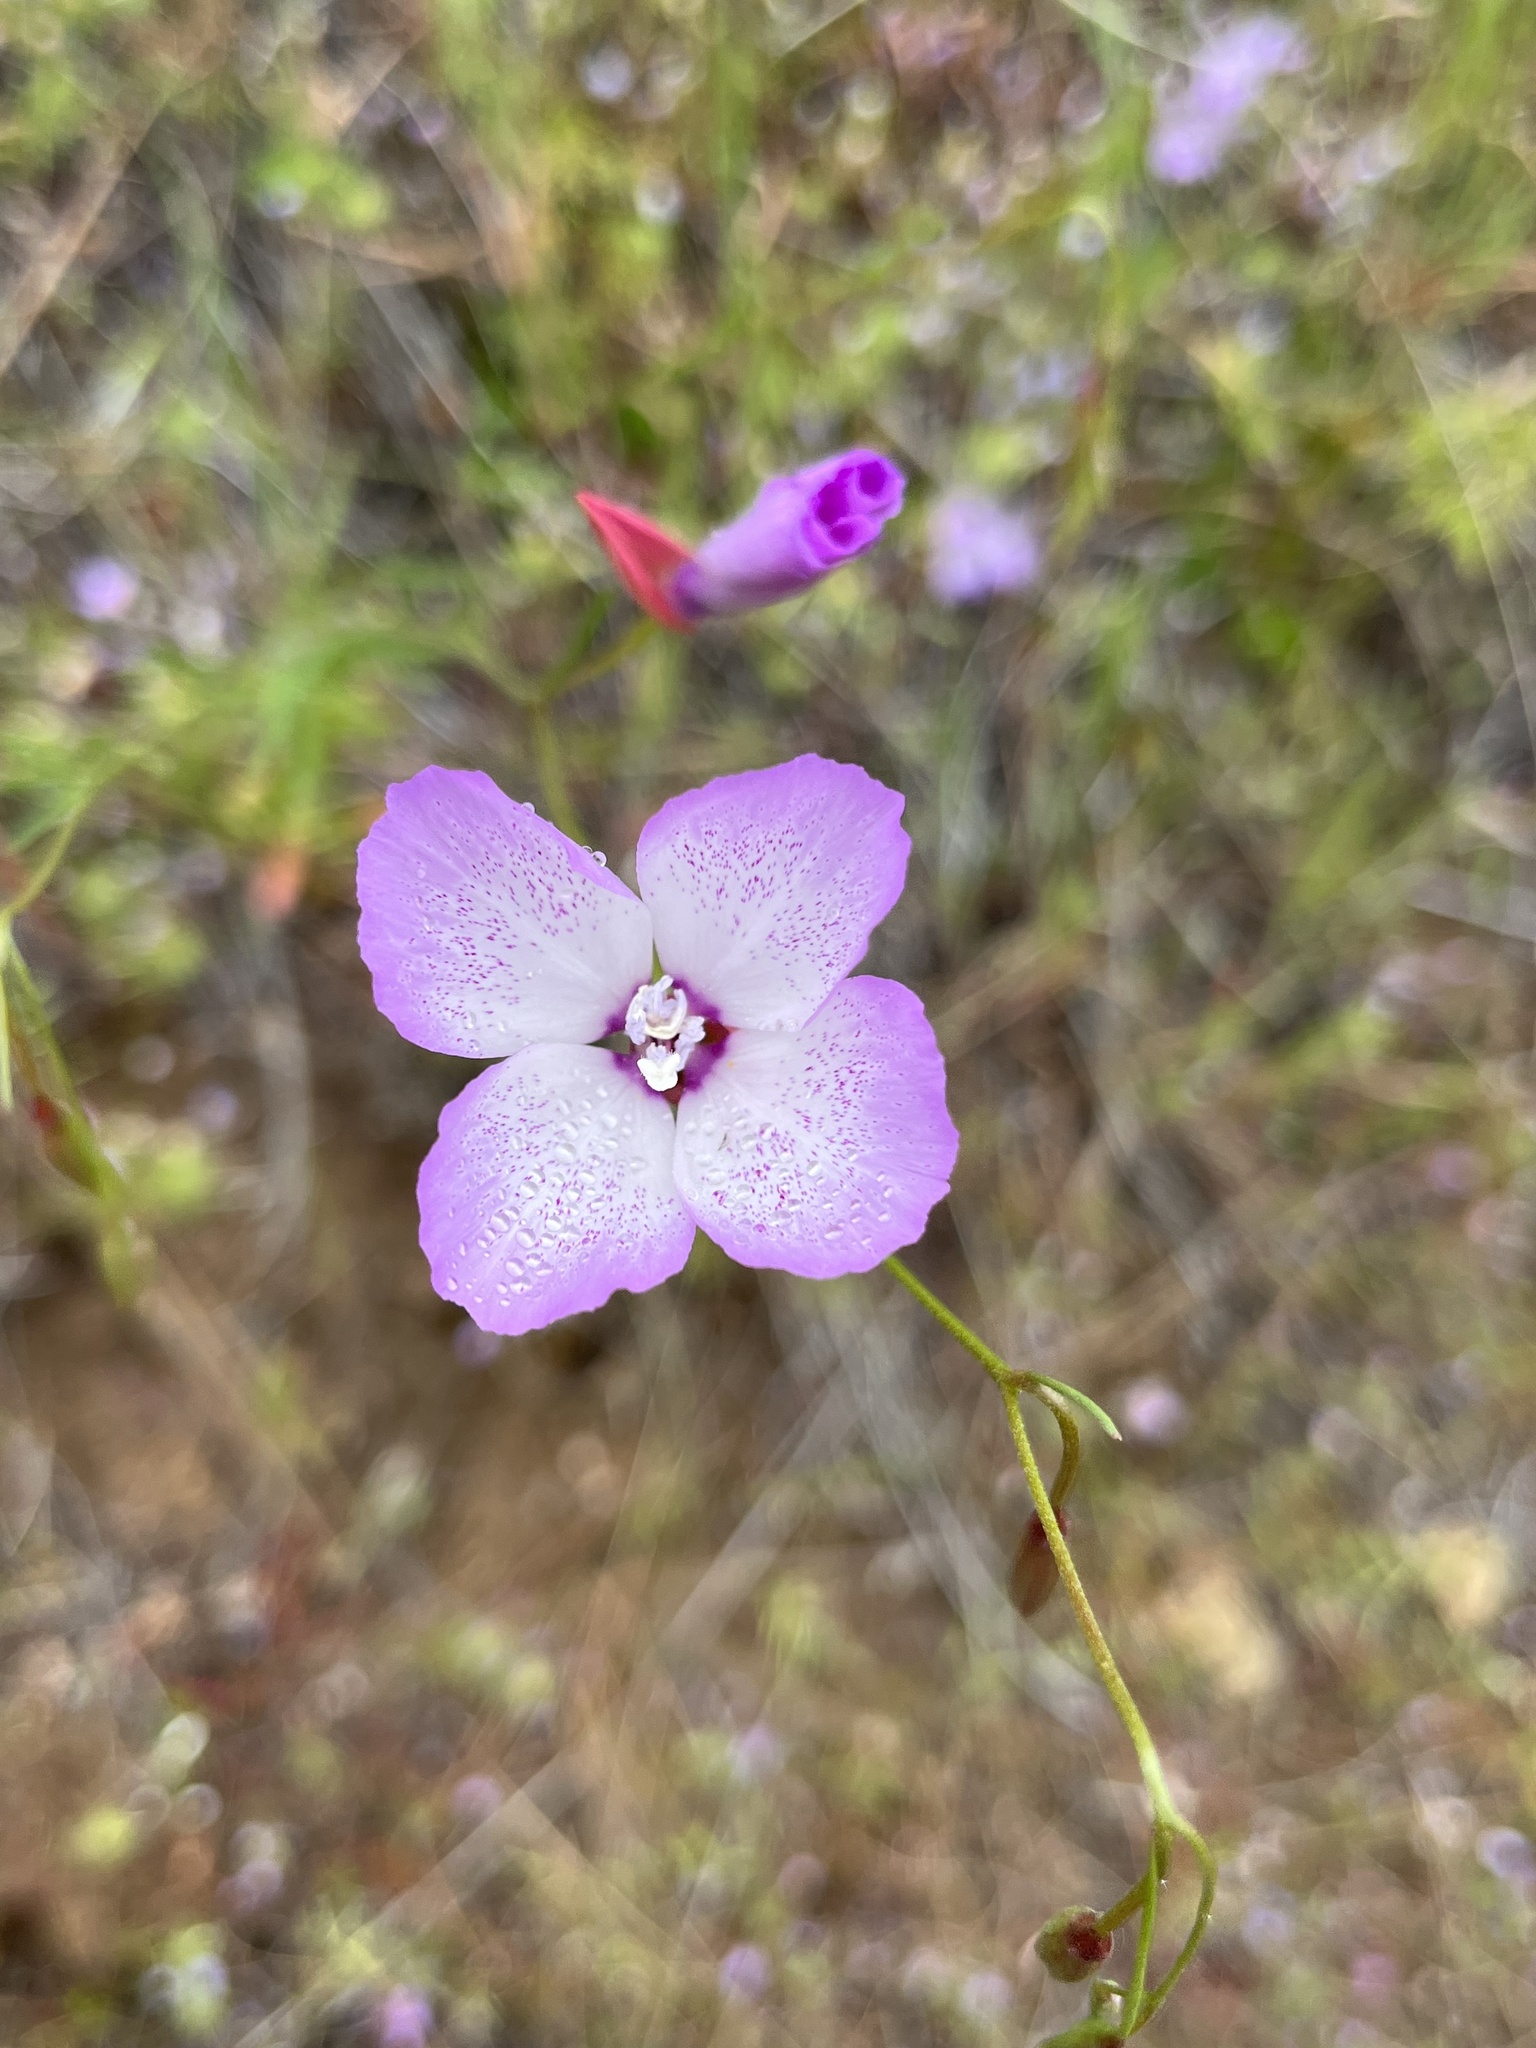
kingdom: Plantae
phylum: Tracheophyta
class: Magnoliopsida
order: Myrtales
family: Onagraceae
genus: Clarkia
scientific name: Clarkia cylindrica
